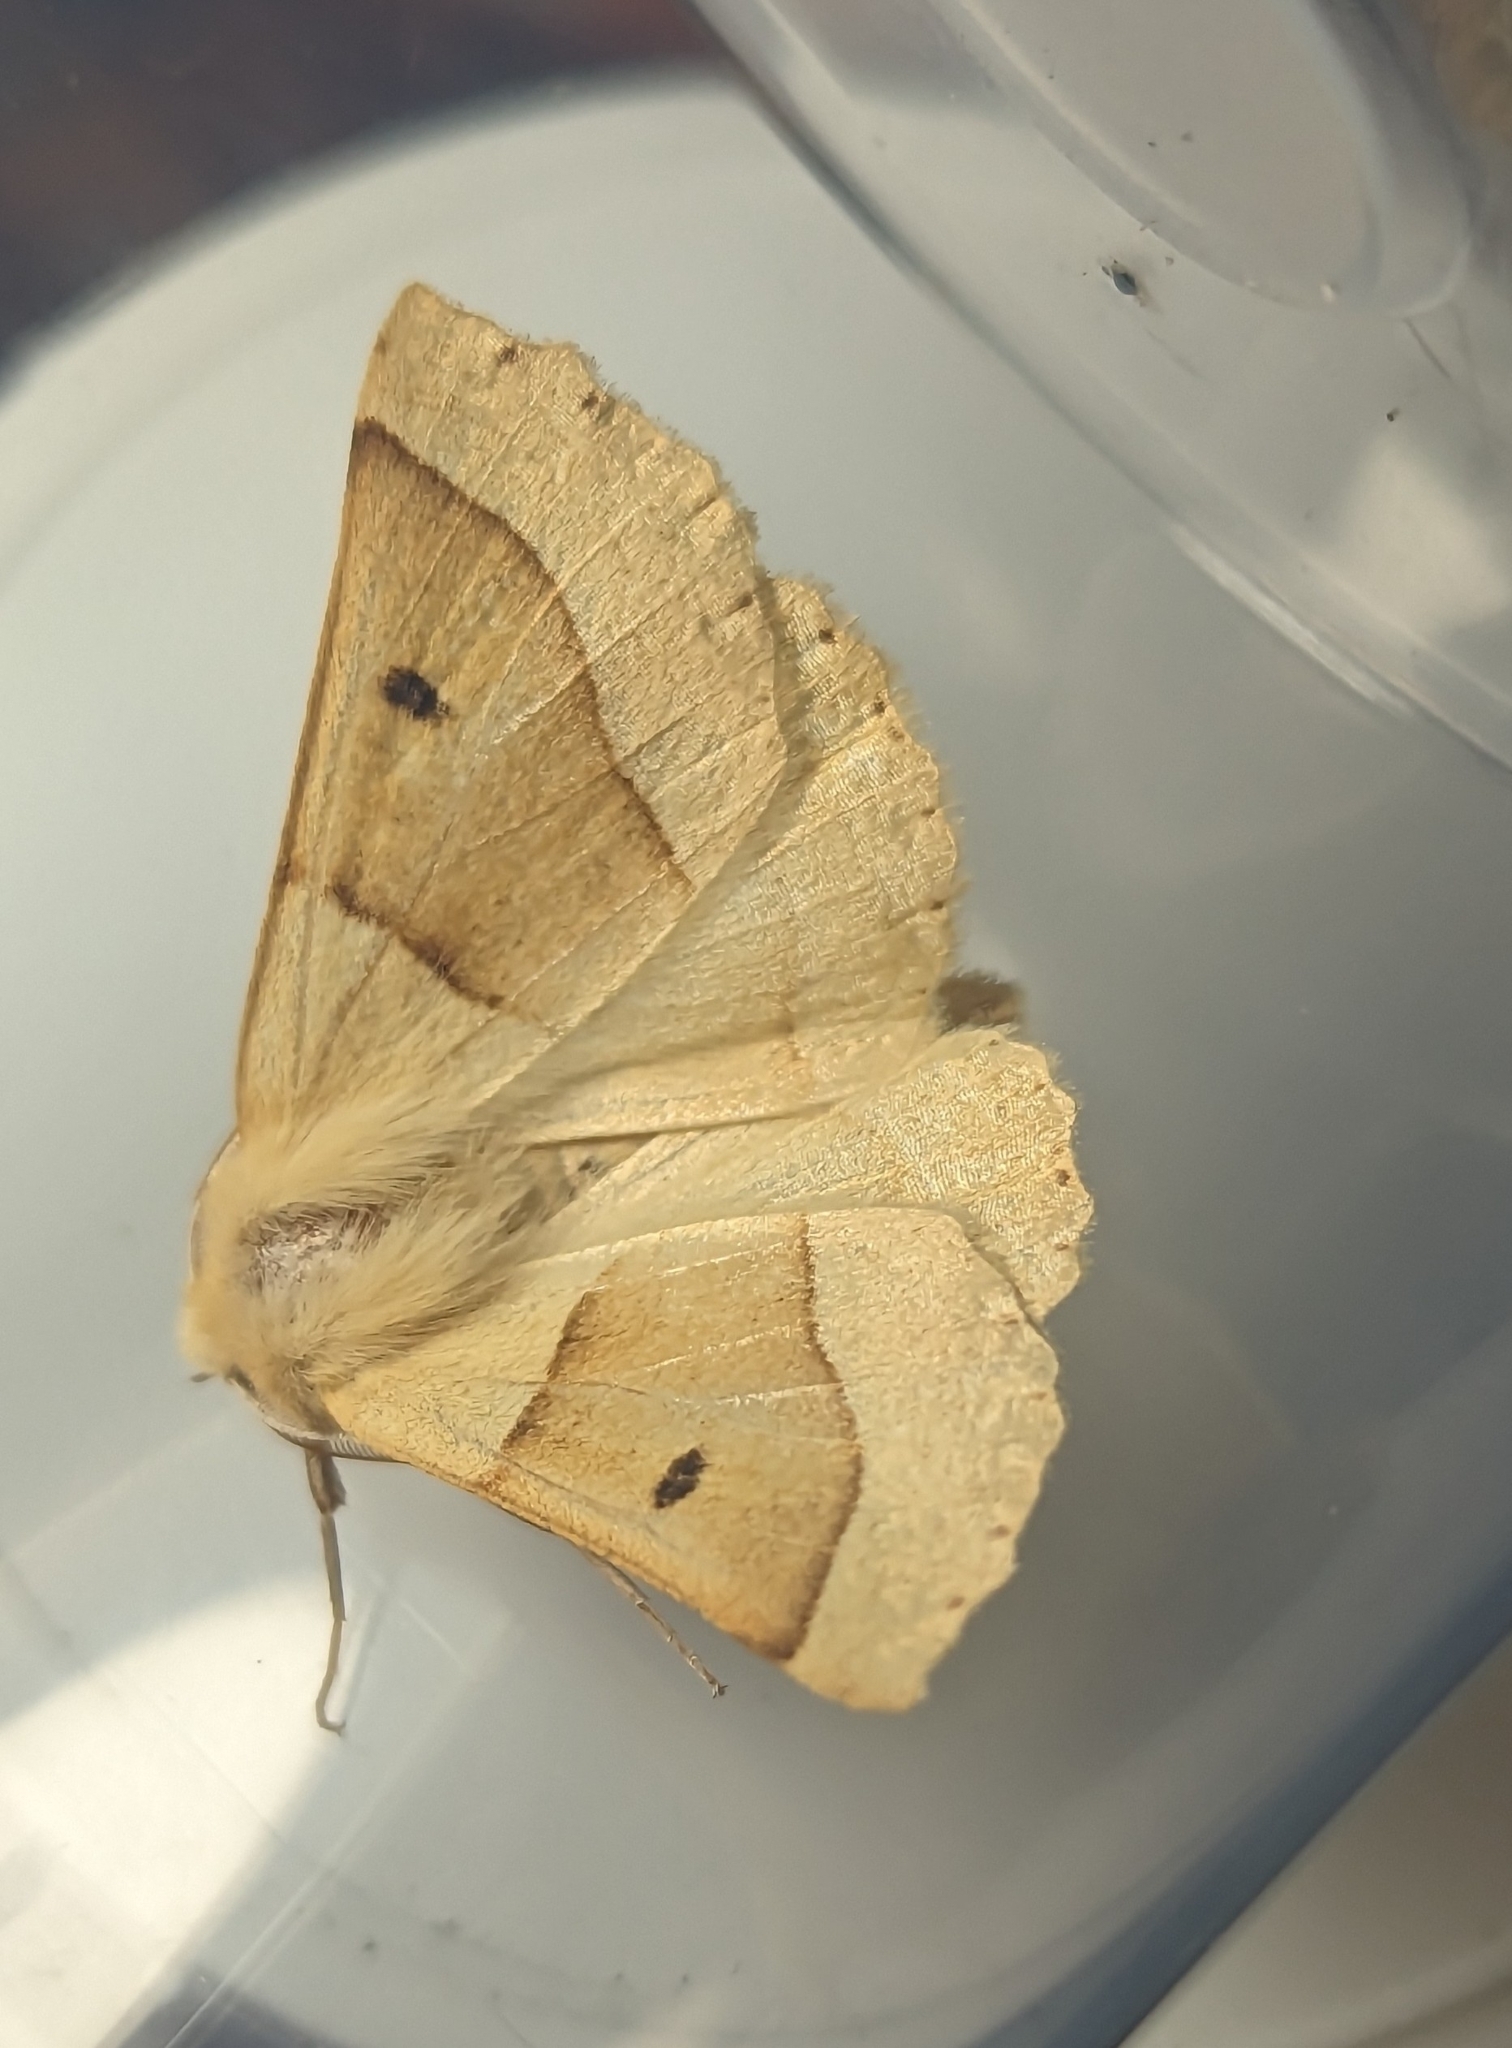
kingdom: Animalia
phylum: Arthropoda
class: Insecta
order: Lepidoptera
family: Geometridae
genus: Crocallis
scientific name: Crocallis elinguaria
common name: Scalloped oak
